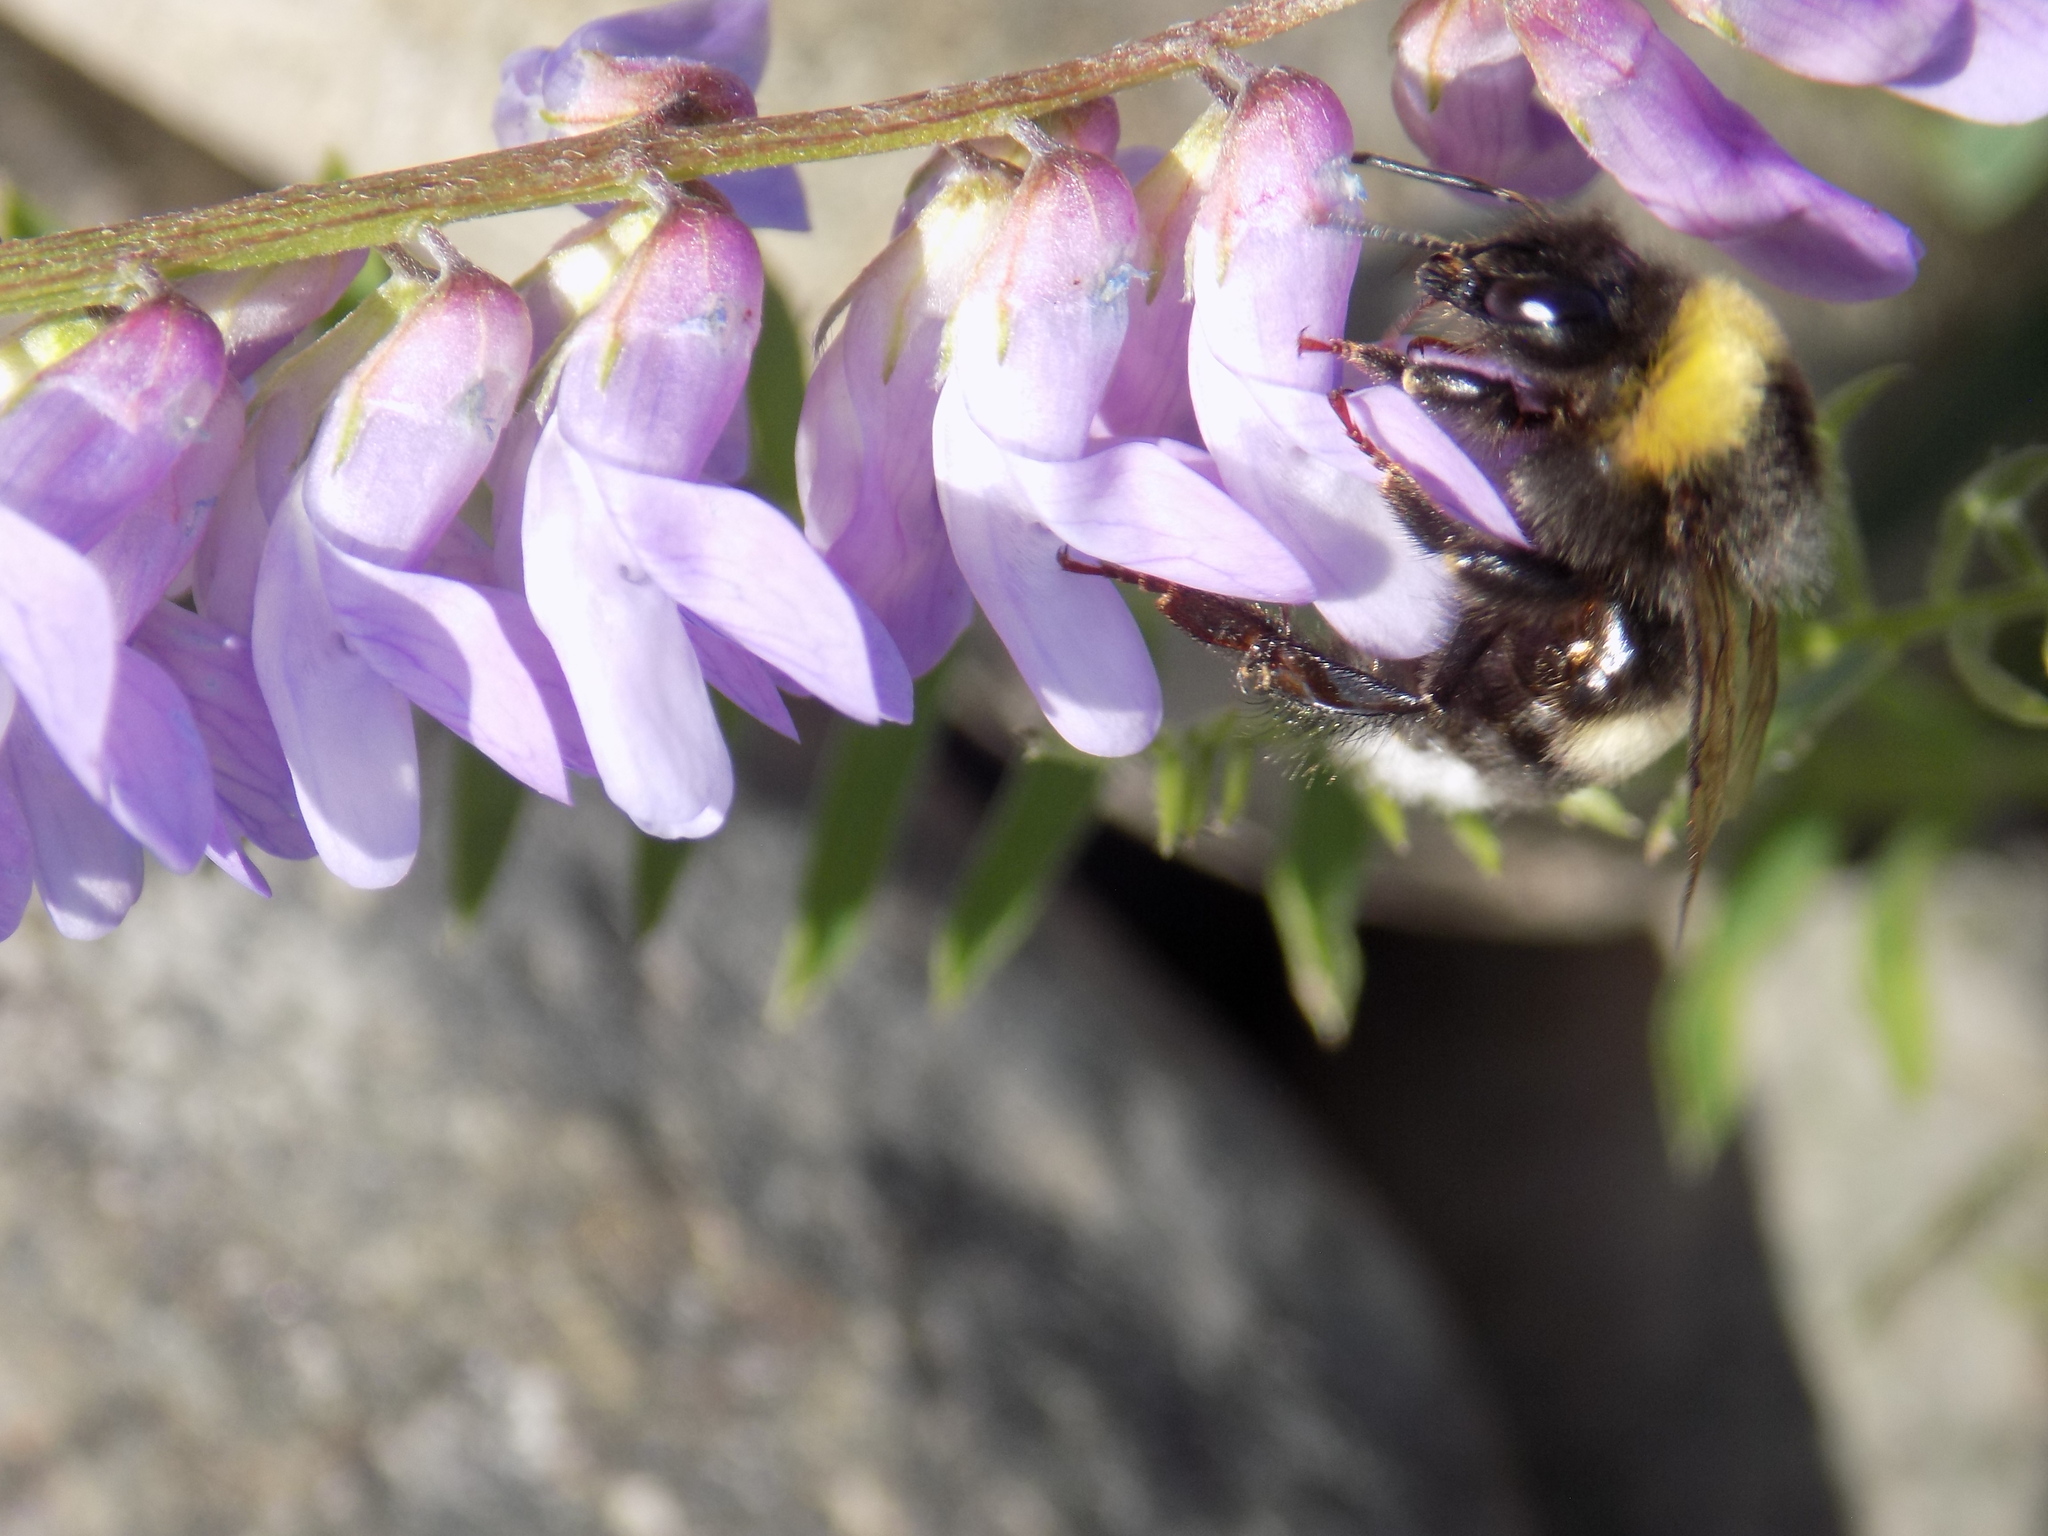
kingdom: Animalia
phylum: Arthropoda
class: Insecta
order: Hymenoptera
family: Apidae
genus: Bombus
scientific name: Bombus
